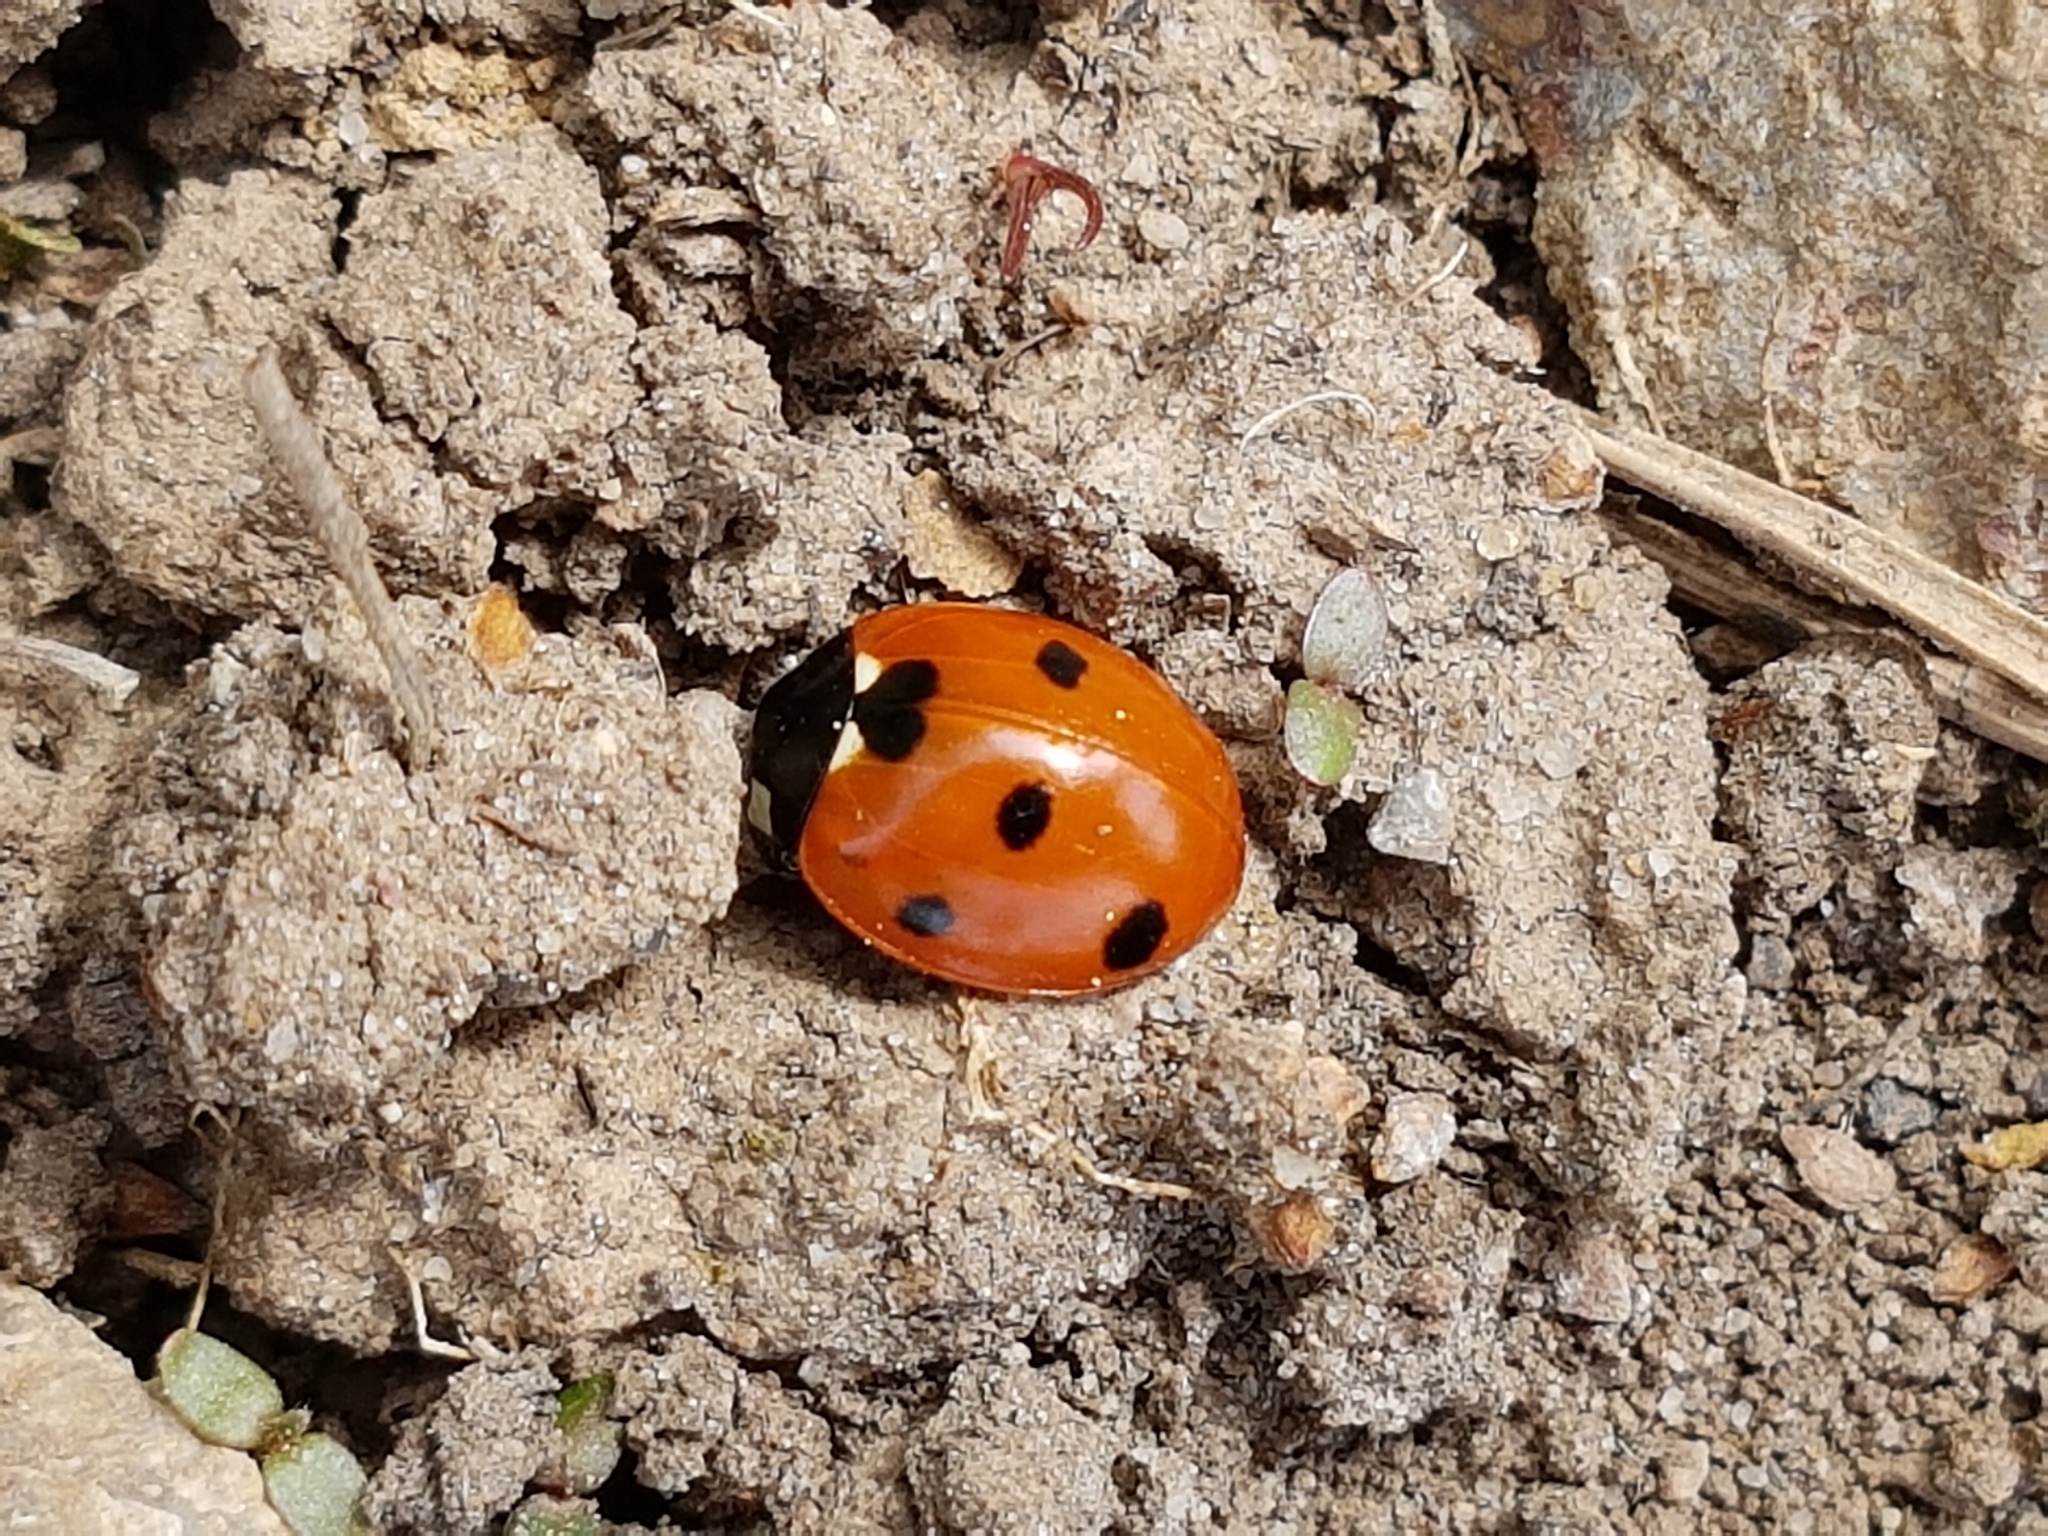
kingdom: Animalia
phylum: Arthropoda
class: Insecta
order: Coleoptera
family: Coccinellidae
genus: Coccinella
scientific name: Coccinella septempunctata
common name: Sevenspotted lady beetle
